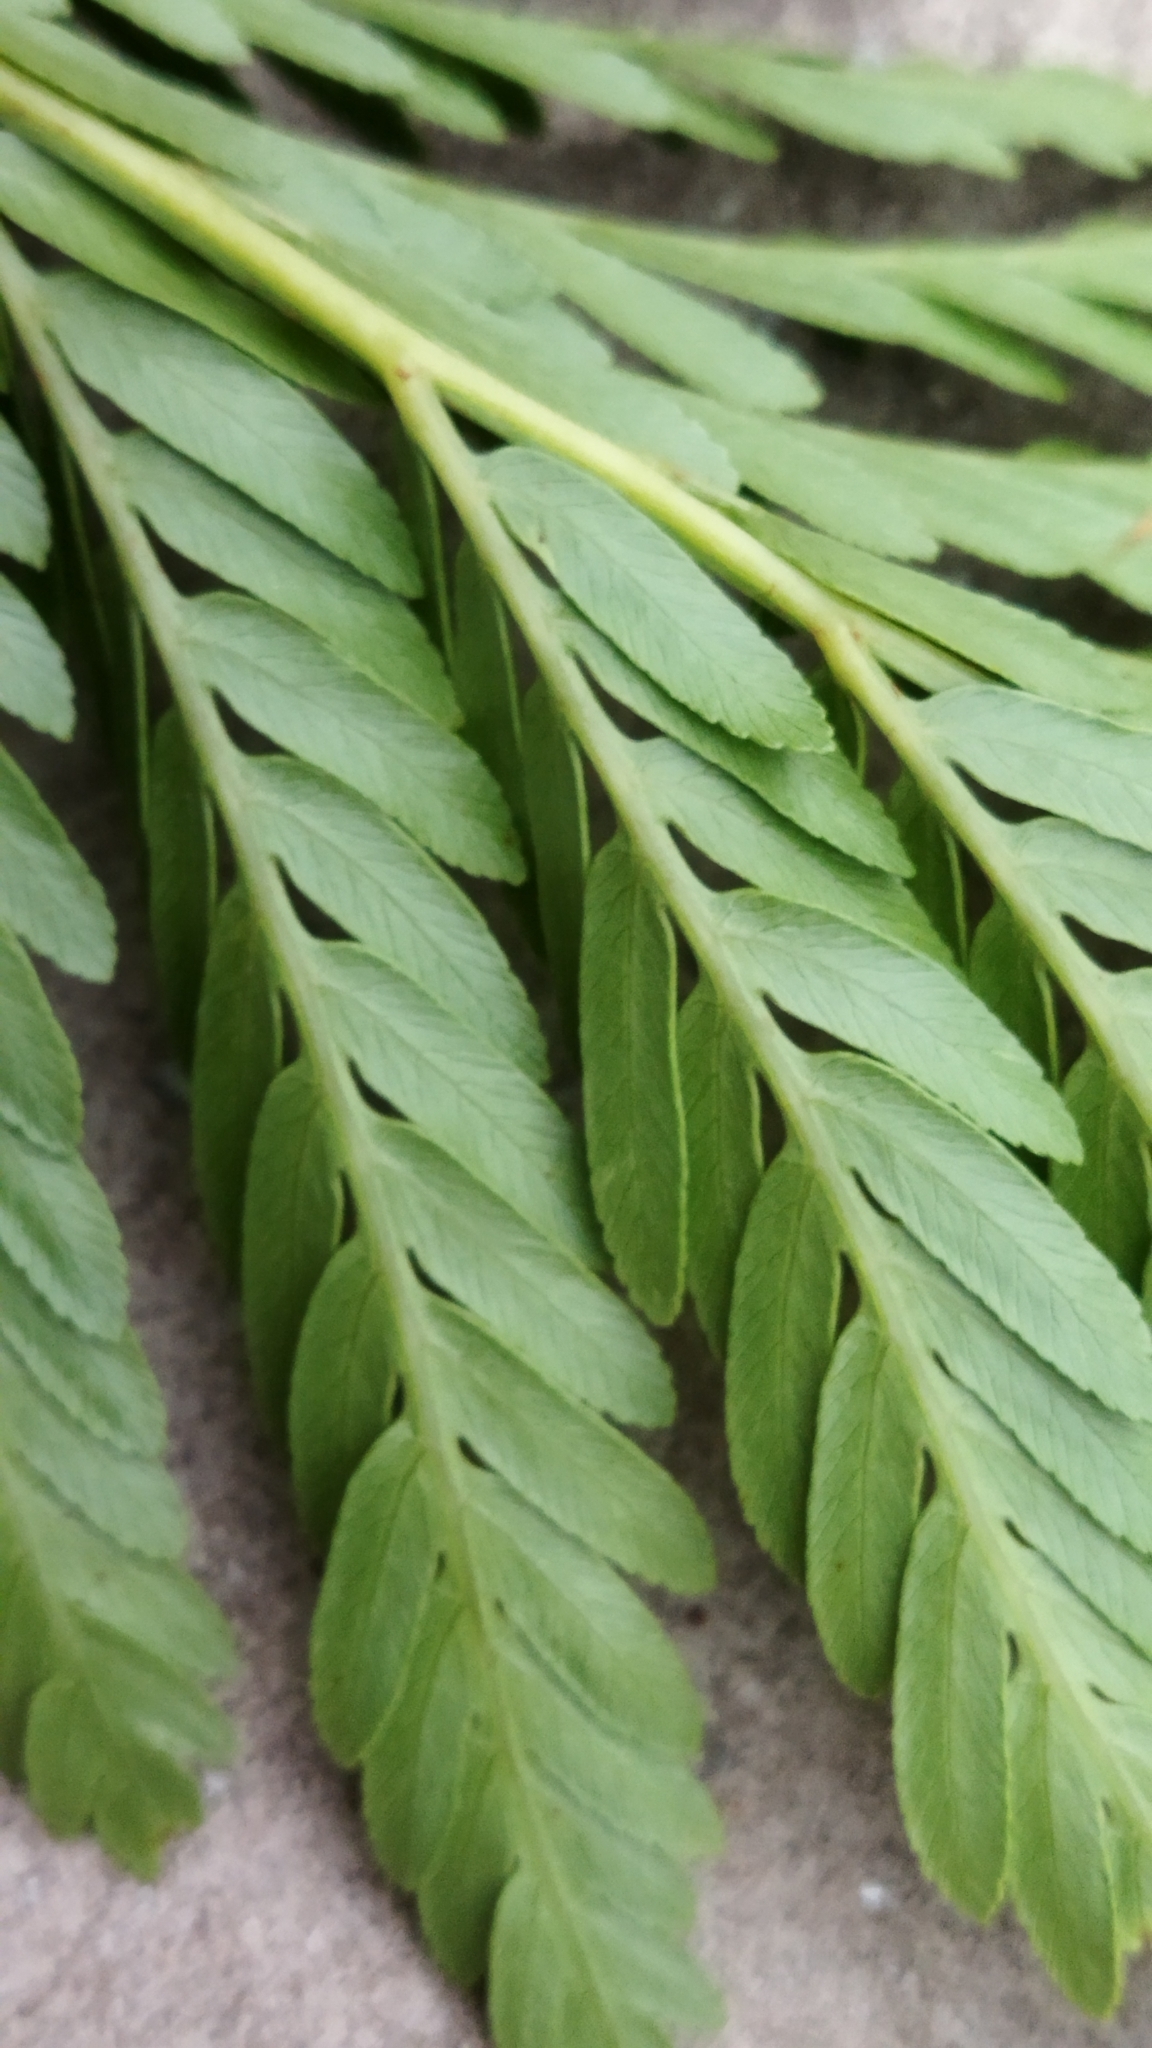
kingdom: Plantae
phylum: Tracheophyta
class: Polypodiopsida
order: Osmundales
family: Osmundaceae
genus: Todea
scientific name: Todea barbara
